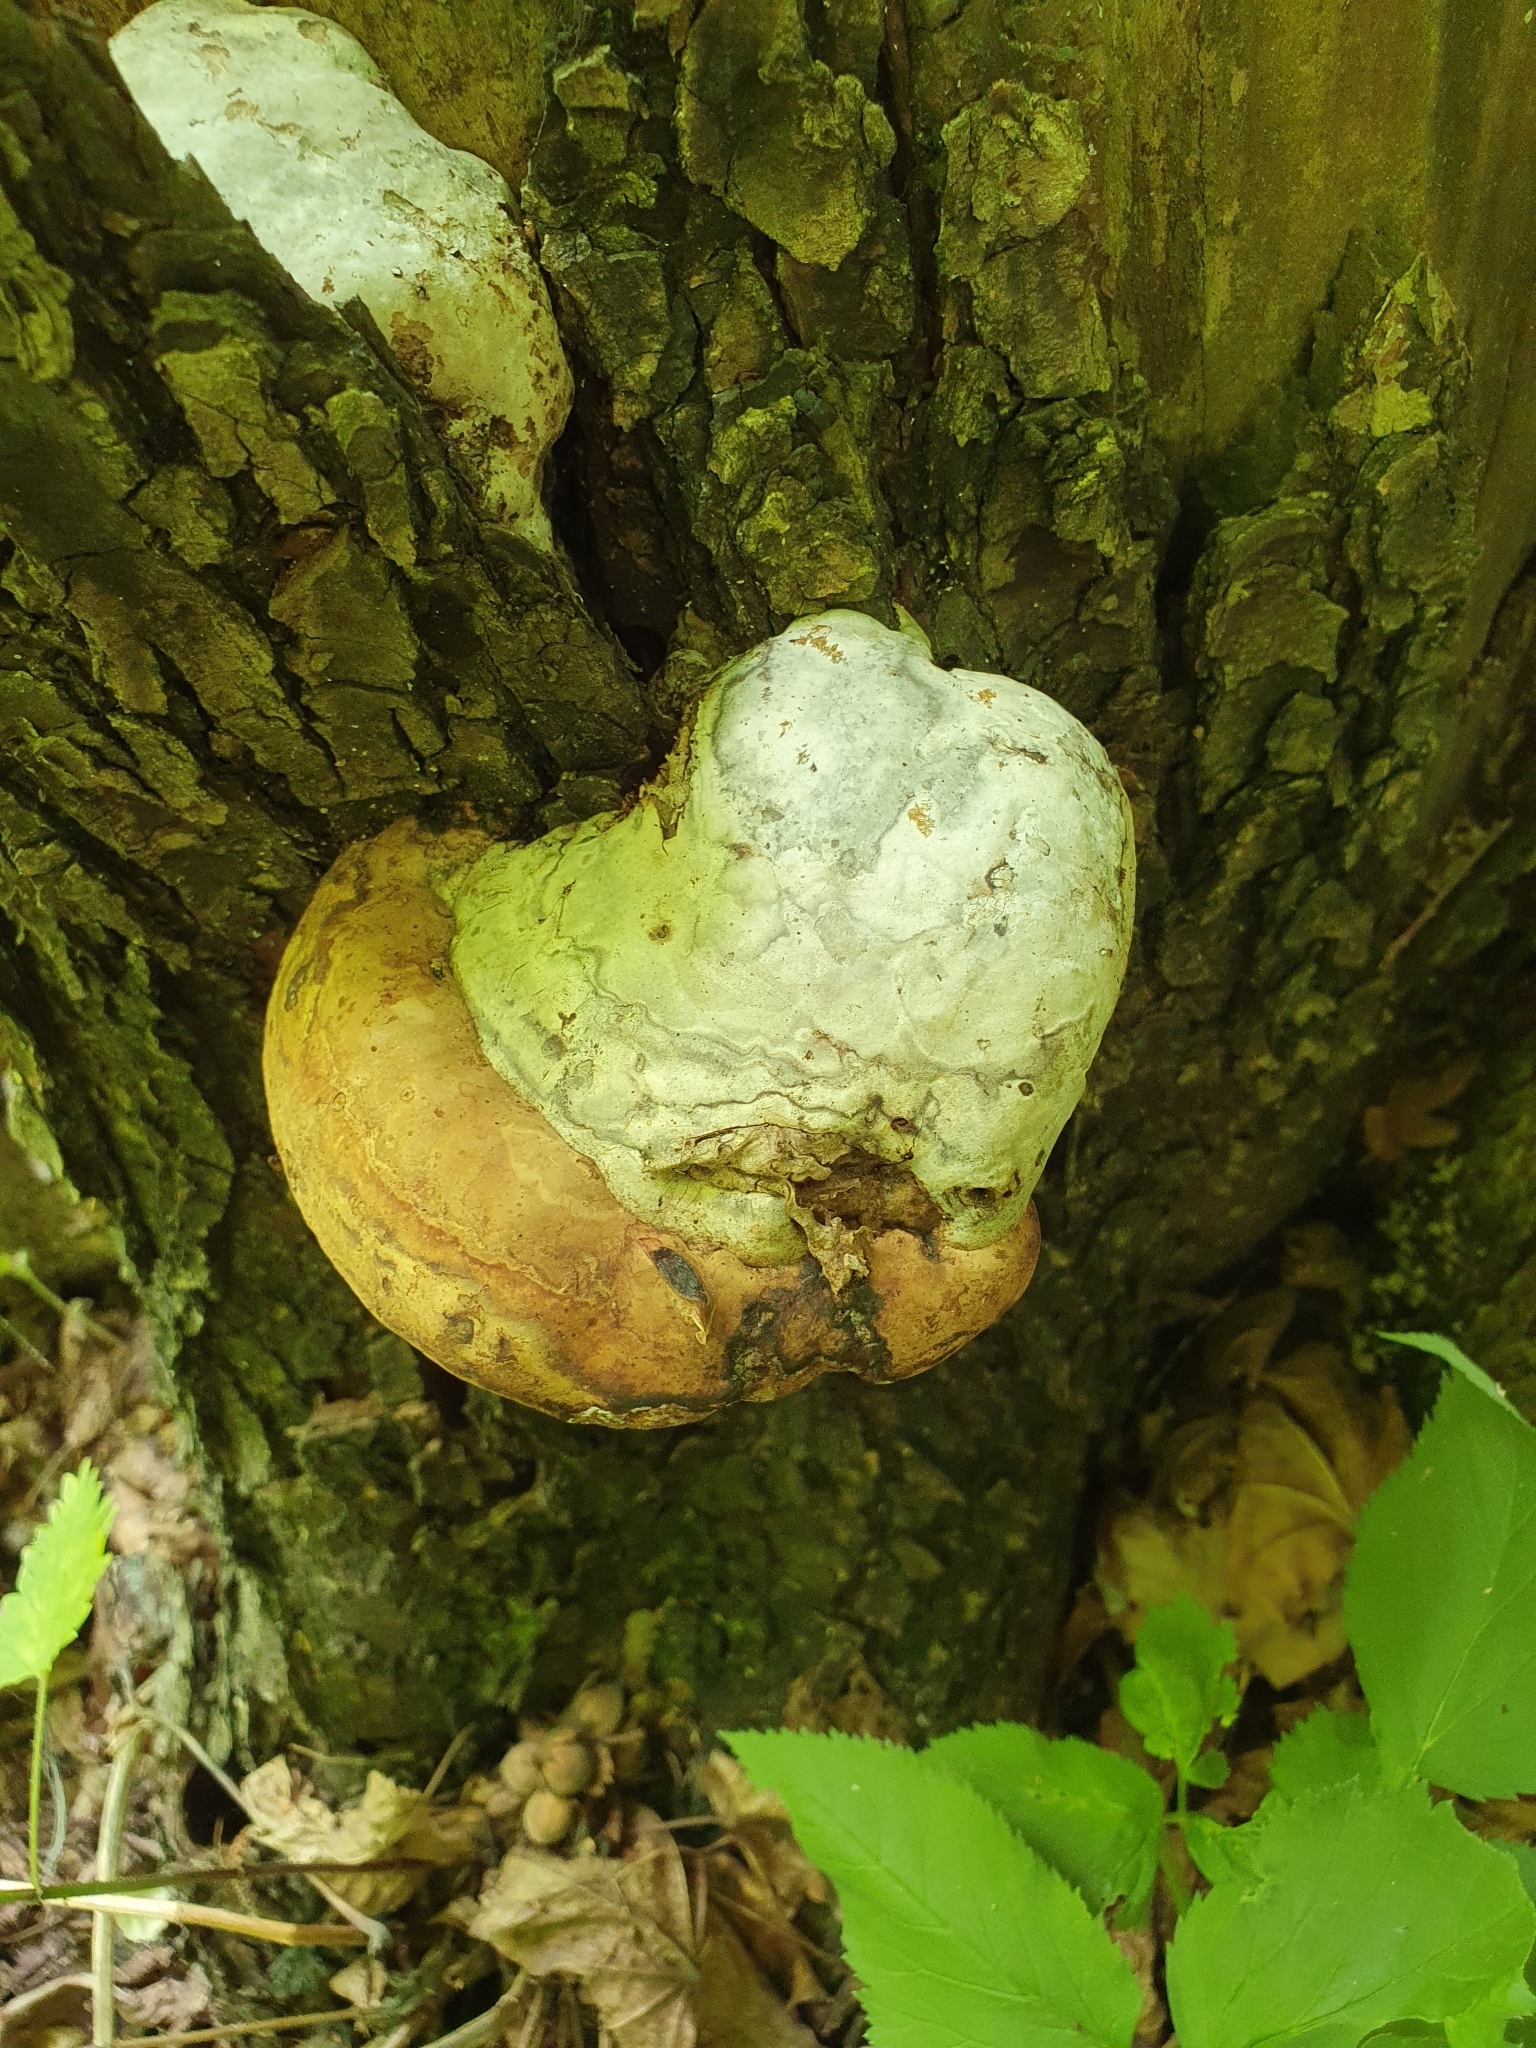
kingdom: Fungi
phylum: Basidiomycota
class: Agaricomycetes
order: Polyporales
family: Polyporaceae
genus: Fomes
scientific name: Fomes fomentarius
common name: Hoof fungus
